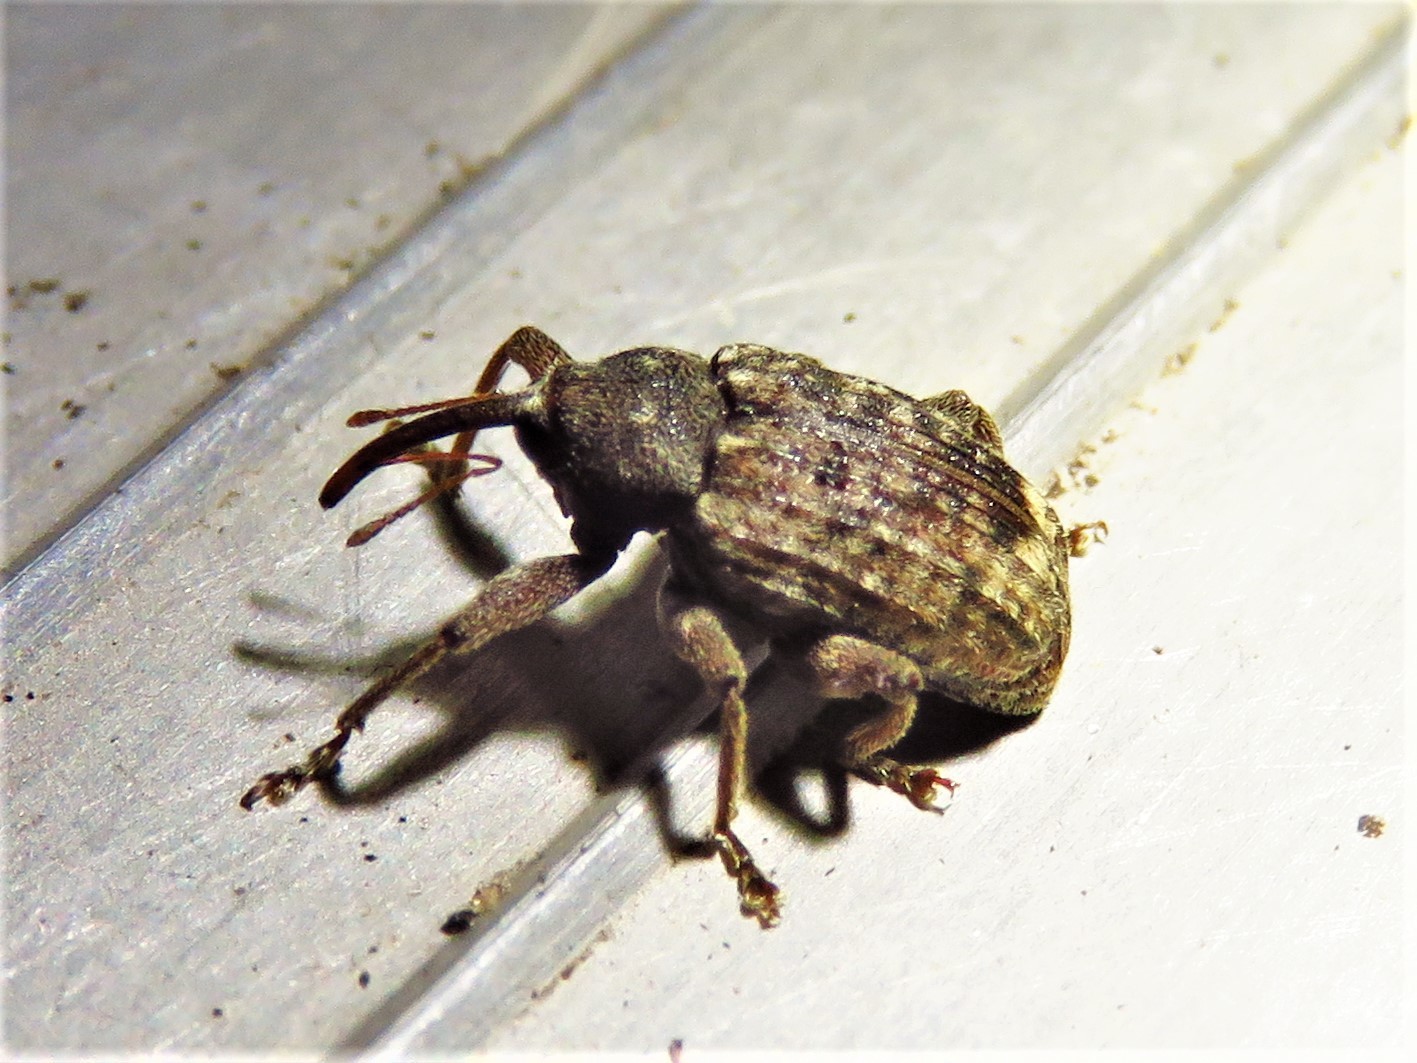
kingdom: Animalia
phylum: Arthropoda
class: Insecta
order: Coleoptera
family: Curculionidae
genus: Conotrachelus
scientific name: Conotrachelus naso
